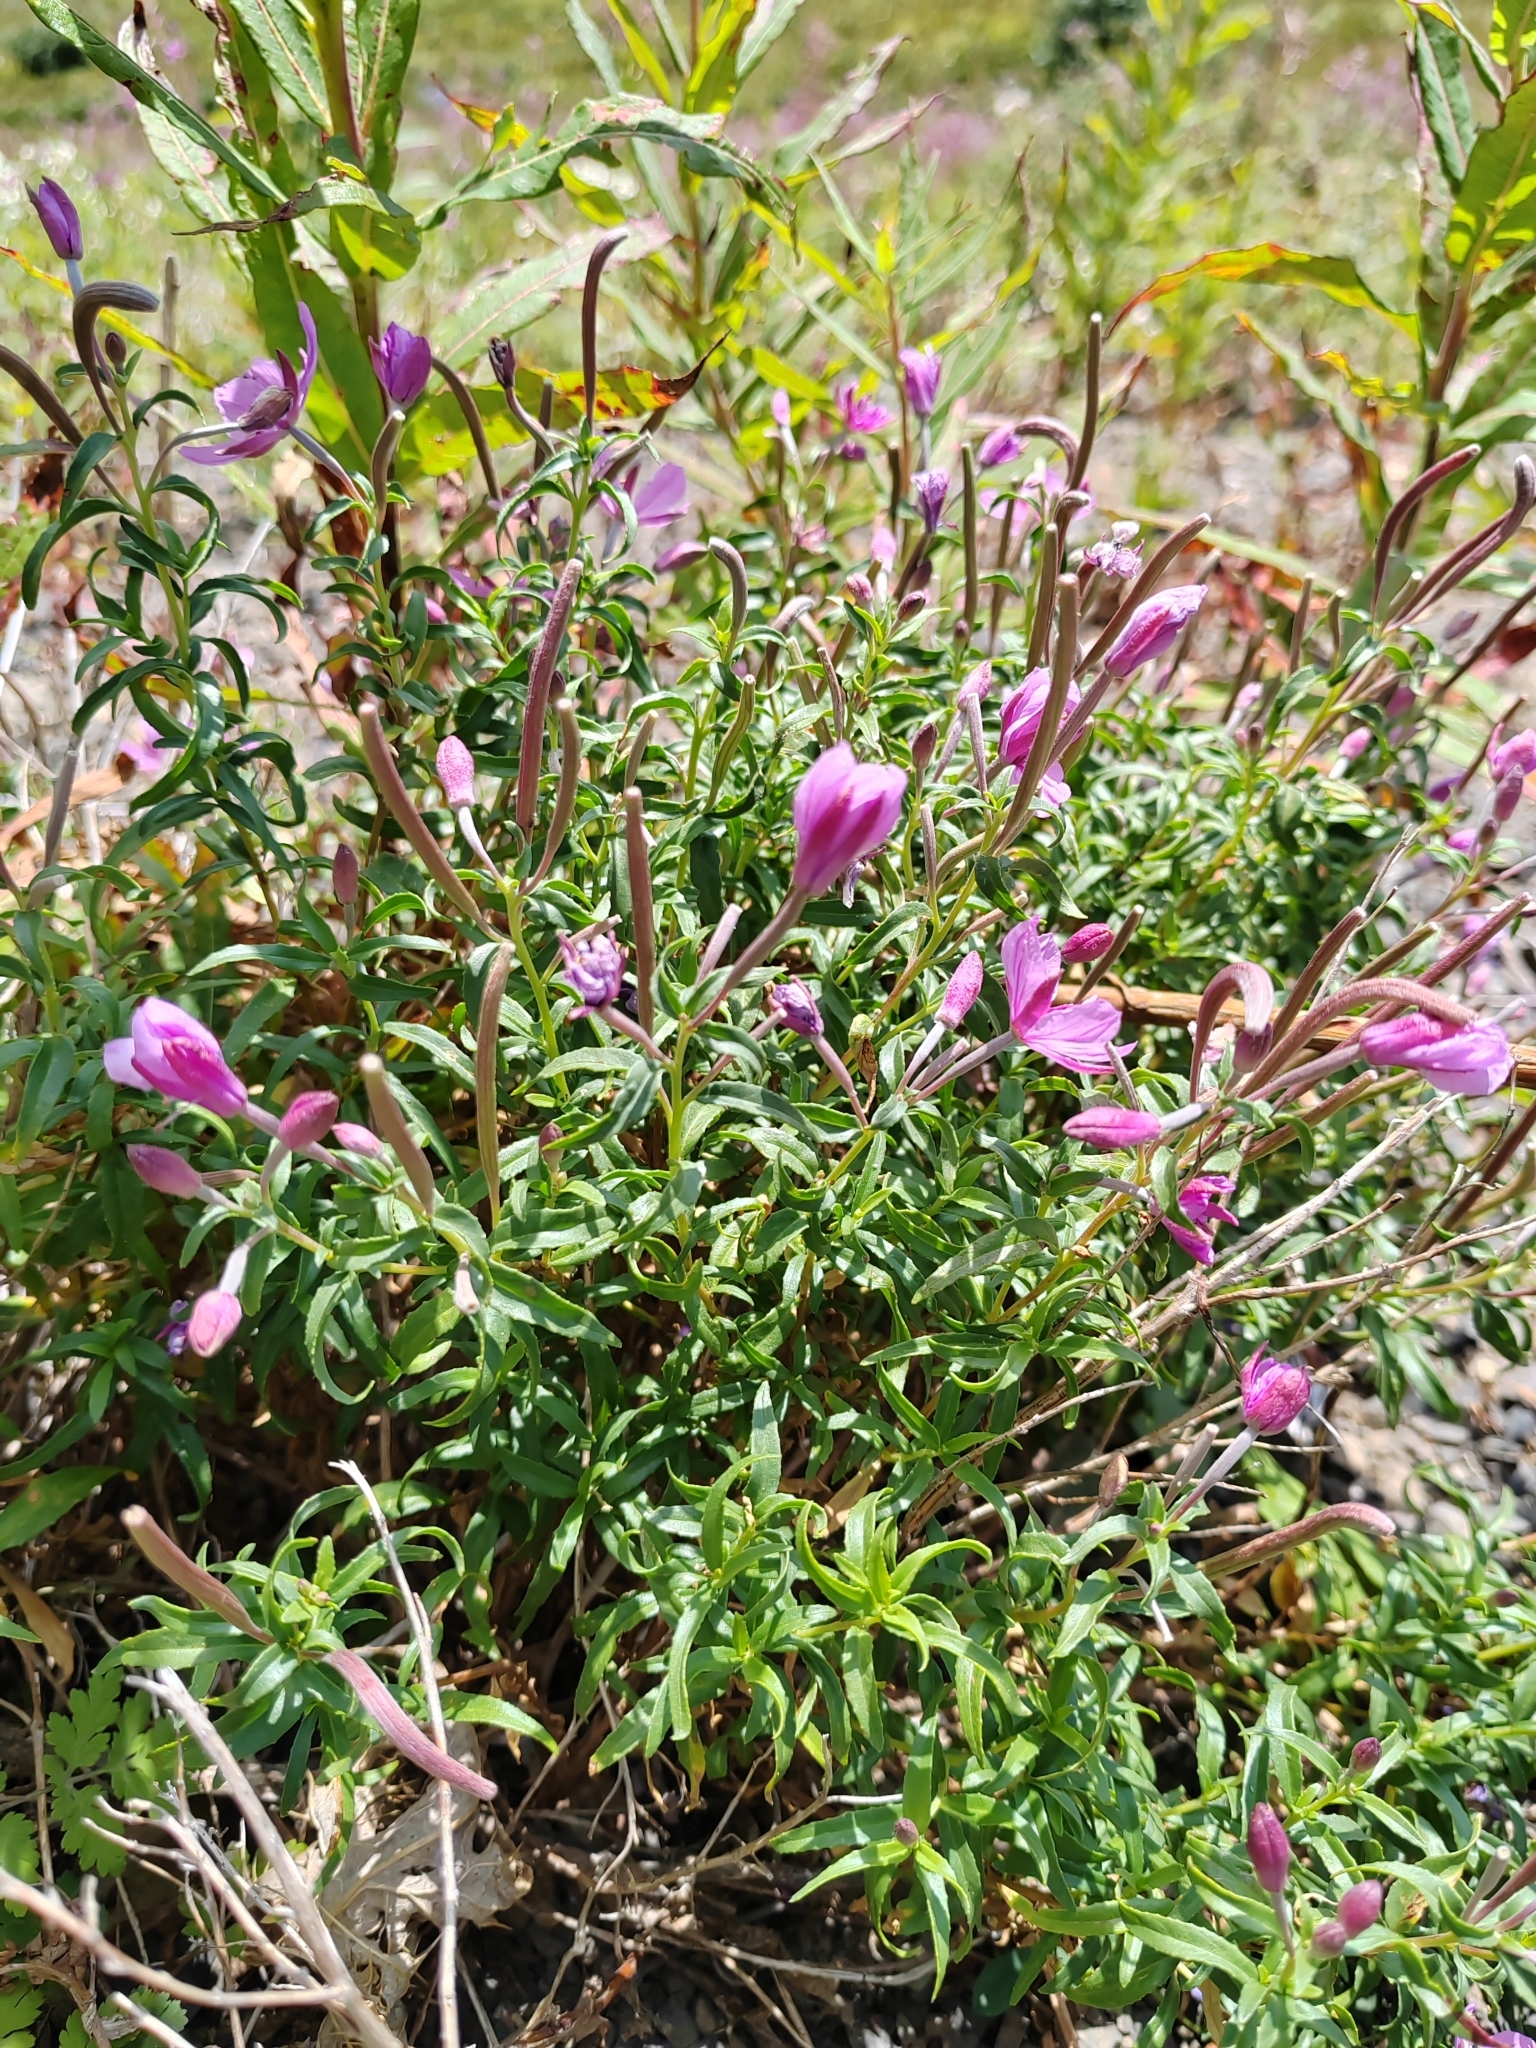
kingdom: Plantae
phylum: Tracheophyta
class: Magnoliopsida
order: Myrtales
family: Onagraceae
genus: Chamaenerion
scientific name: Chamaenerion colchicum
